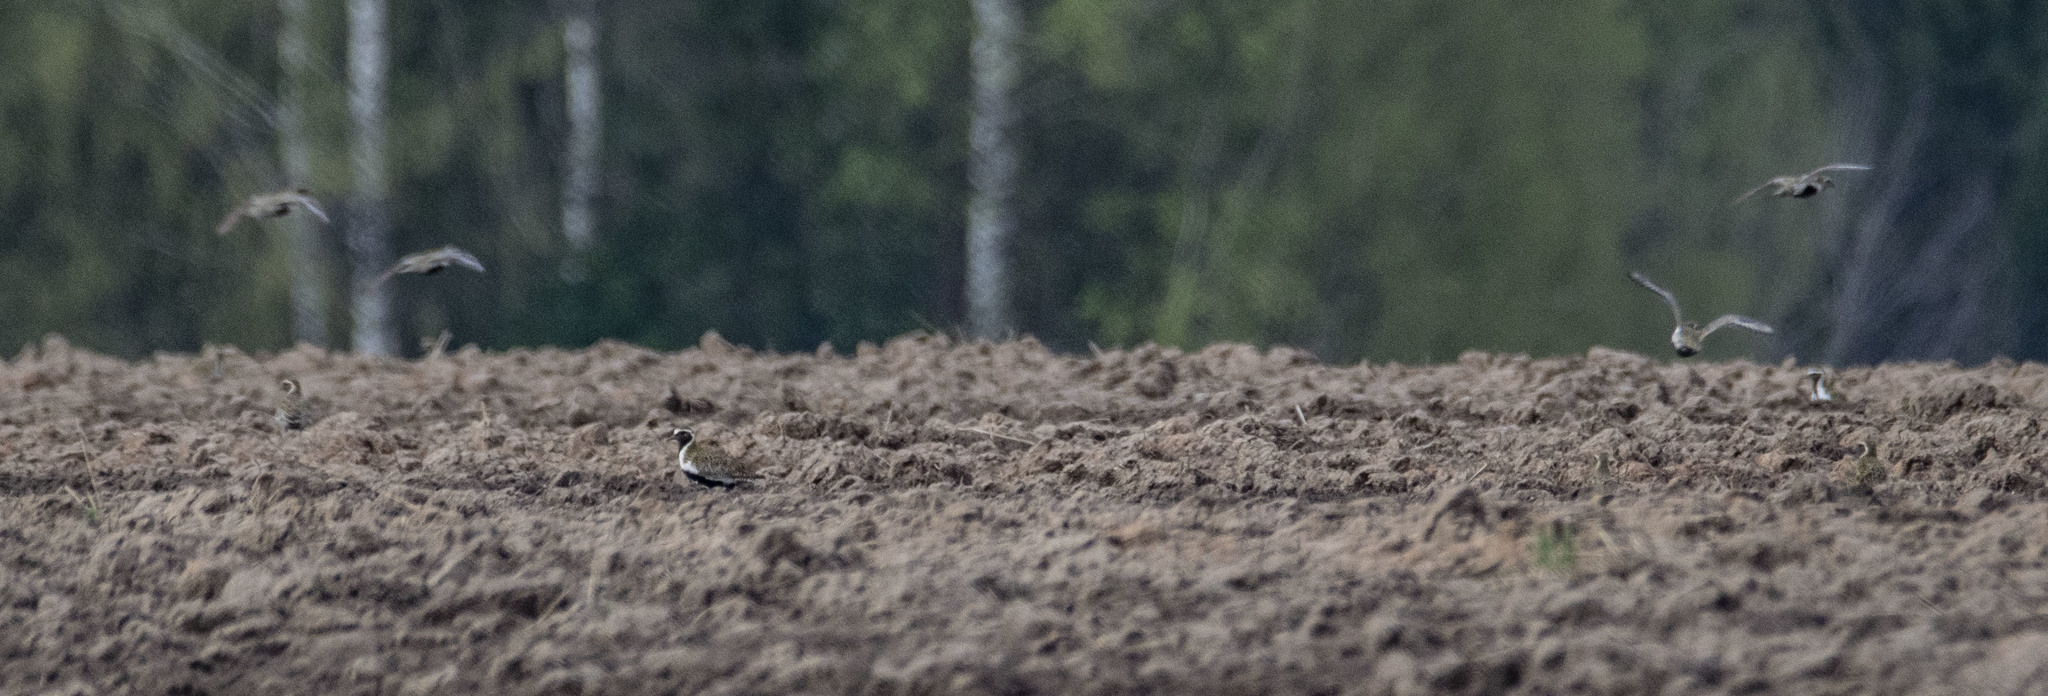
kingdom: Animalia
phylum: Chordata
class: Aves
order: Charadriiformes
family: Charadriidae
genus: Pluvialis
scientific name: Pluvialis apricaria
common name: European golden plover
